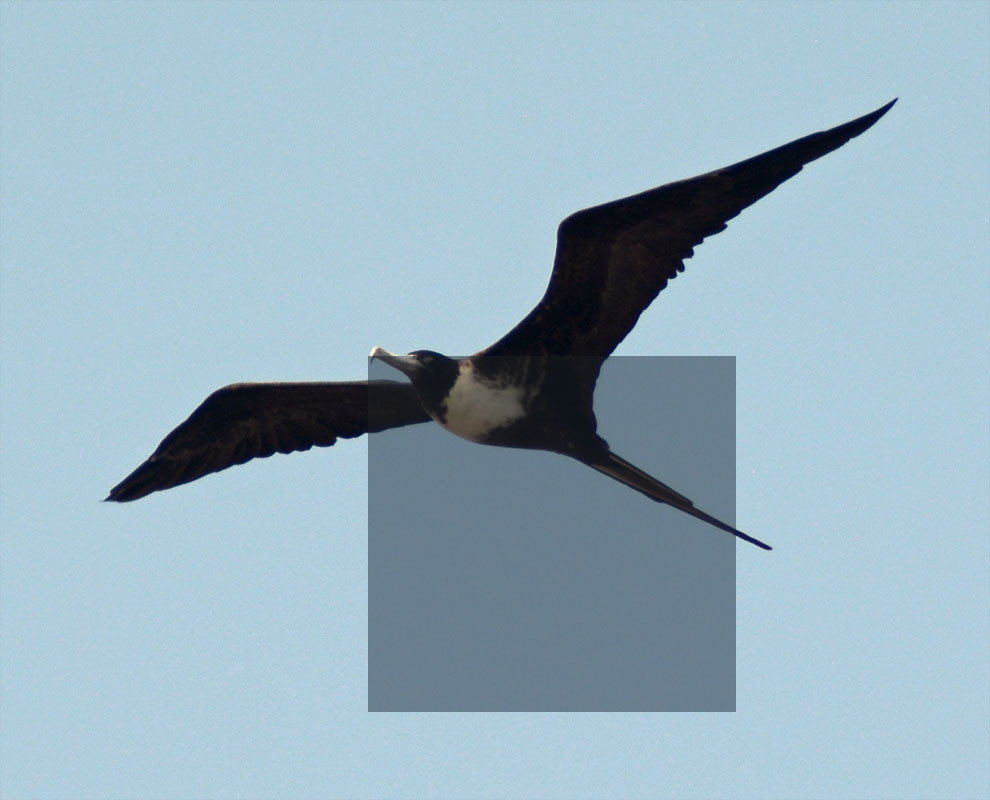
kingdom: Animalia
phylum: Chordata
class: Aves
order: Suliformes
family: Fregatidae
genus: Fregata
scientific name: Fregata magnificens
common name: Magnificent frigatebird
